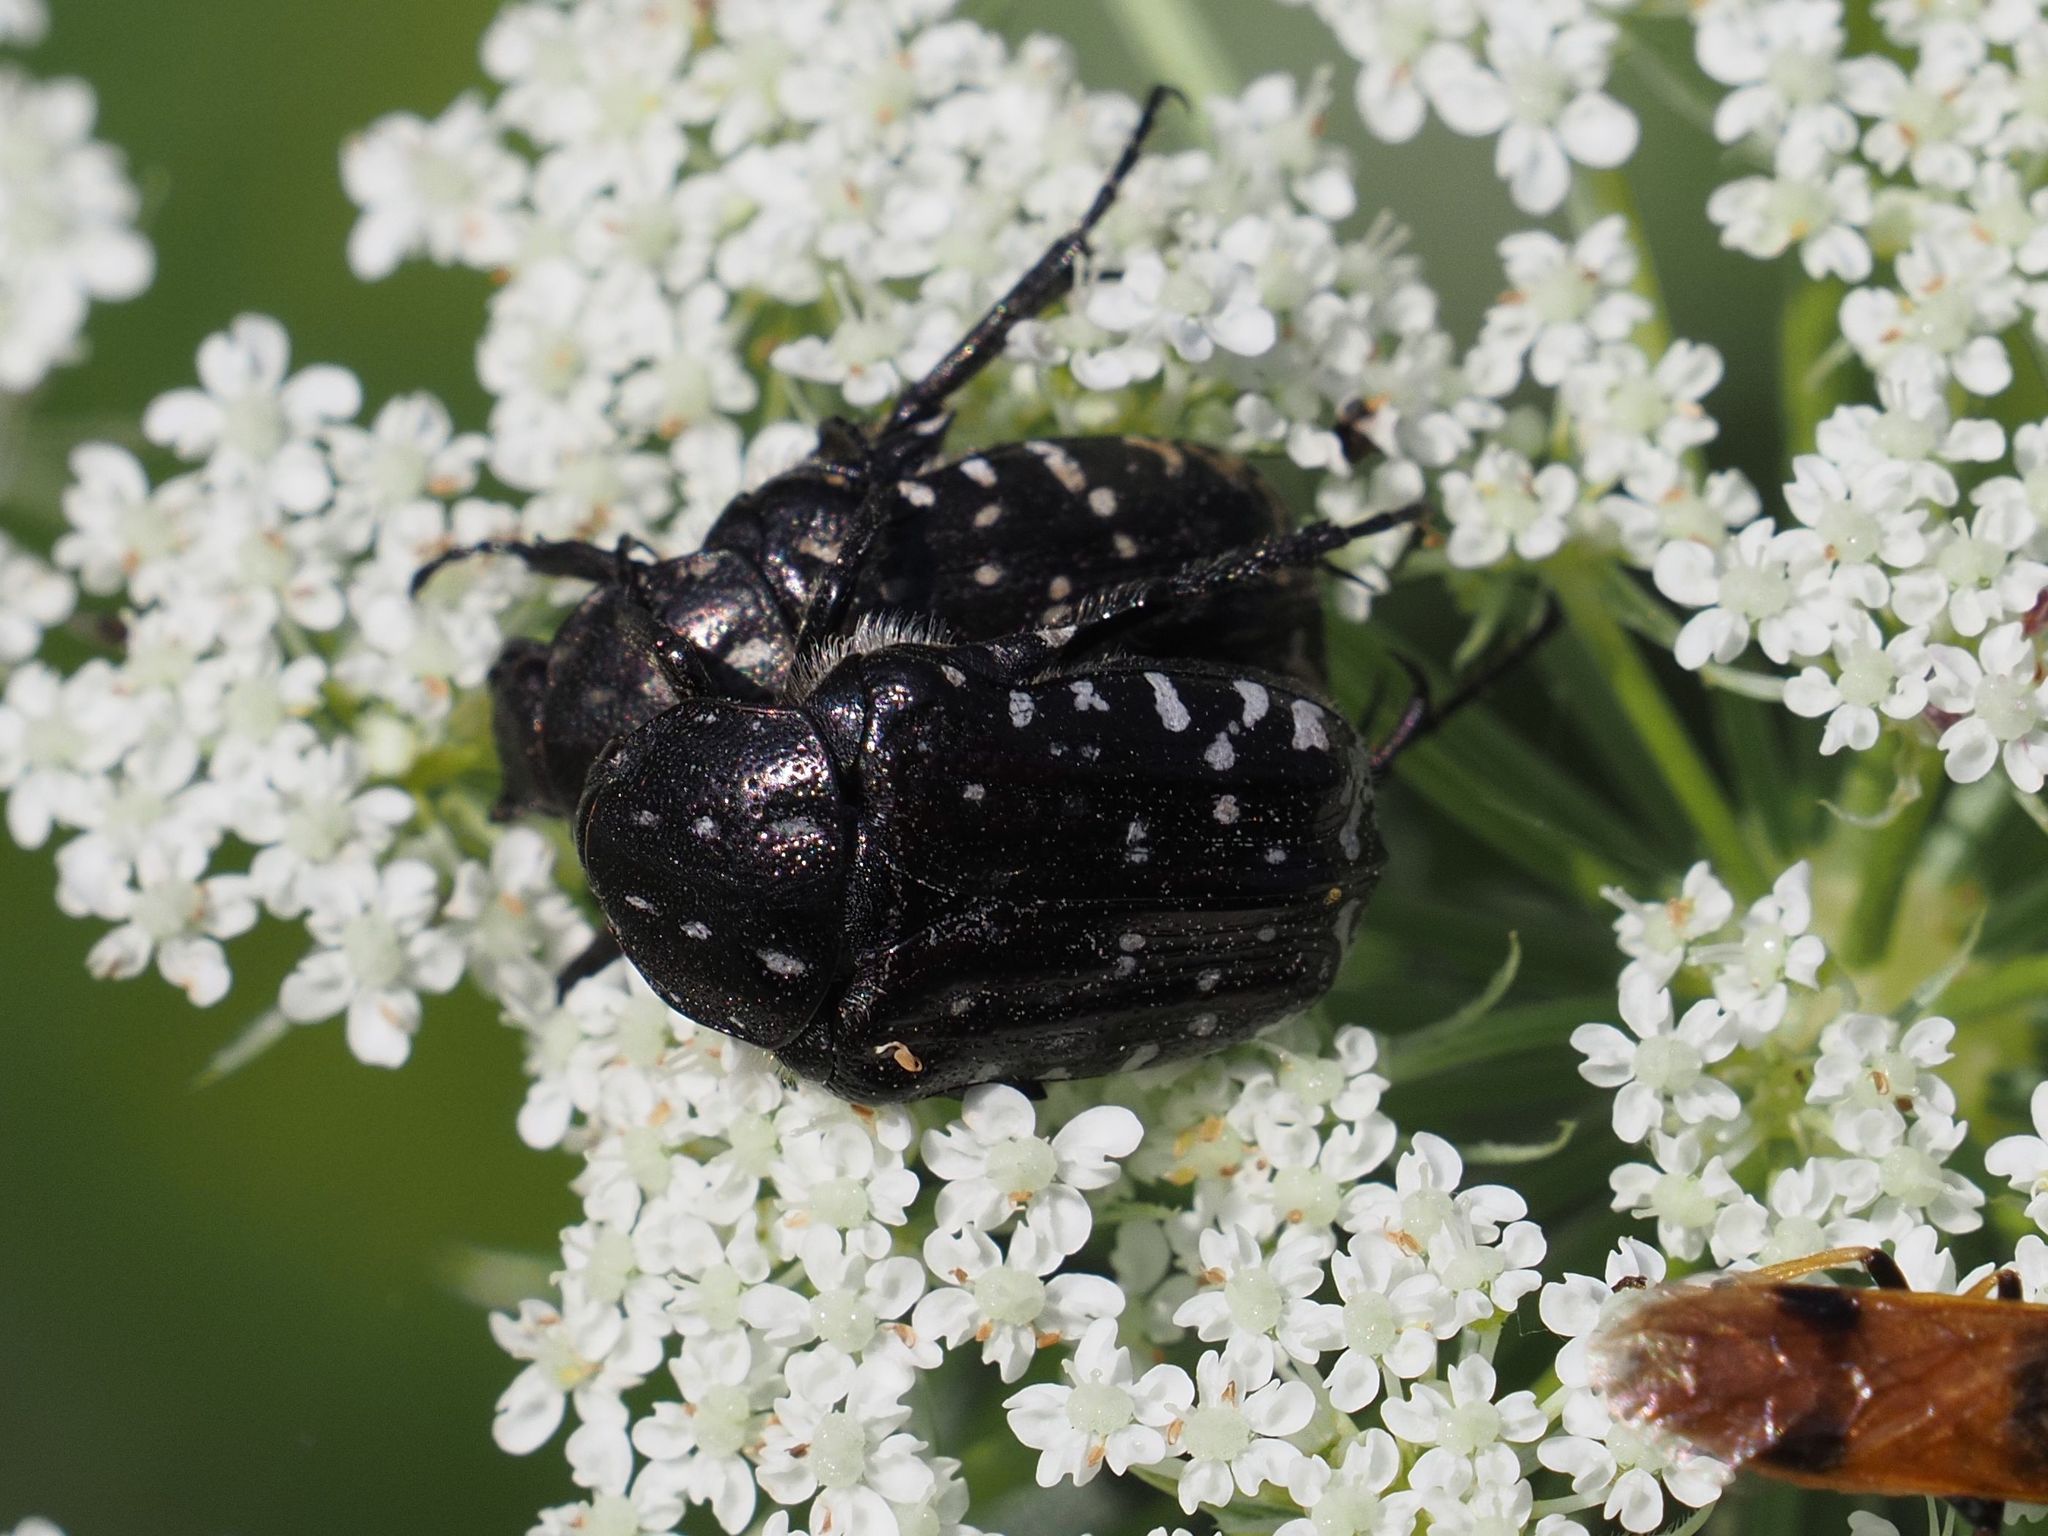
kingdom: Animalia
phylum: Arthropoda
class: Insecta
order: Coleoptera
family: Scarabaeidae
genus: Oxythyrea
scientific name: Oxythyrea funesta
